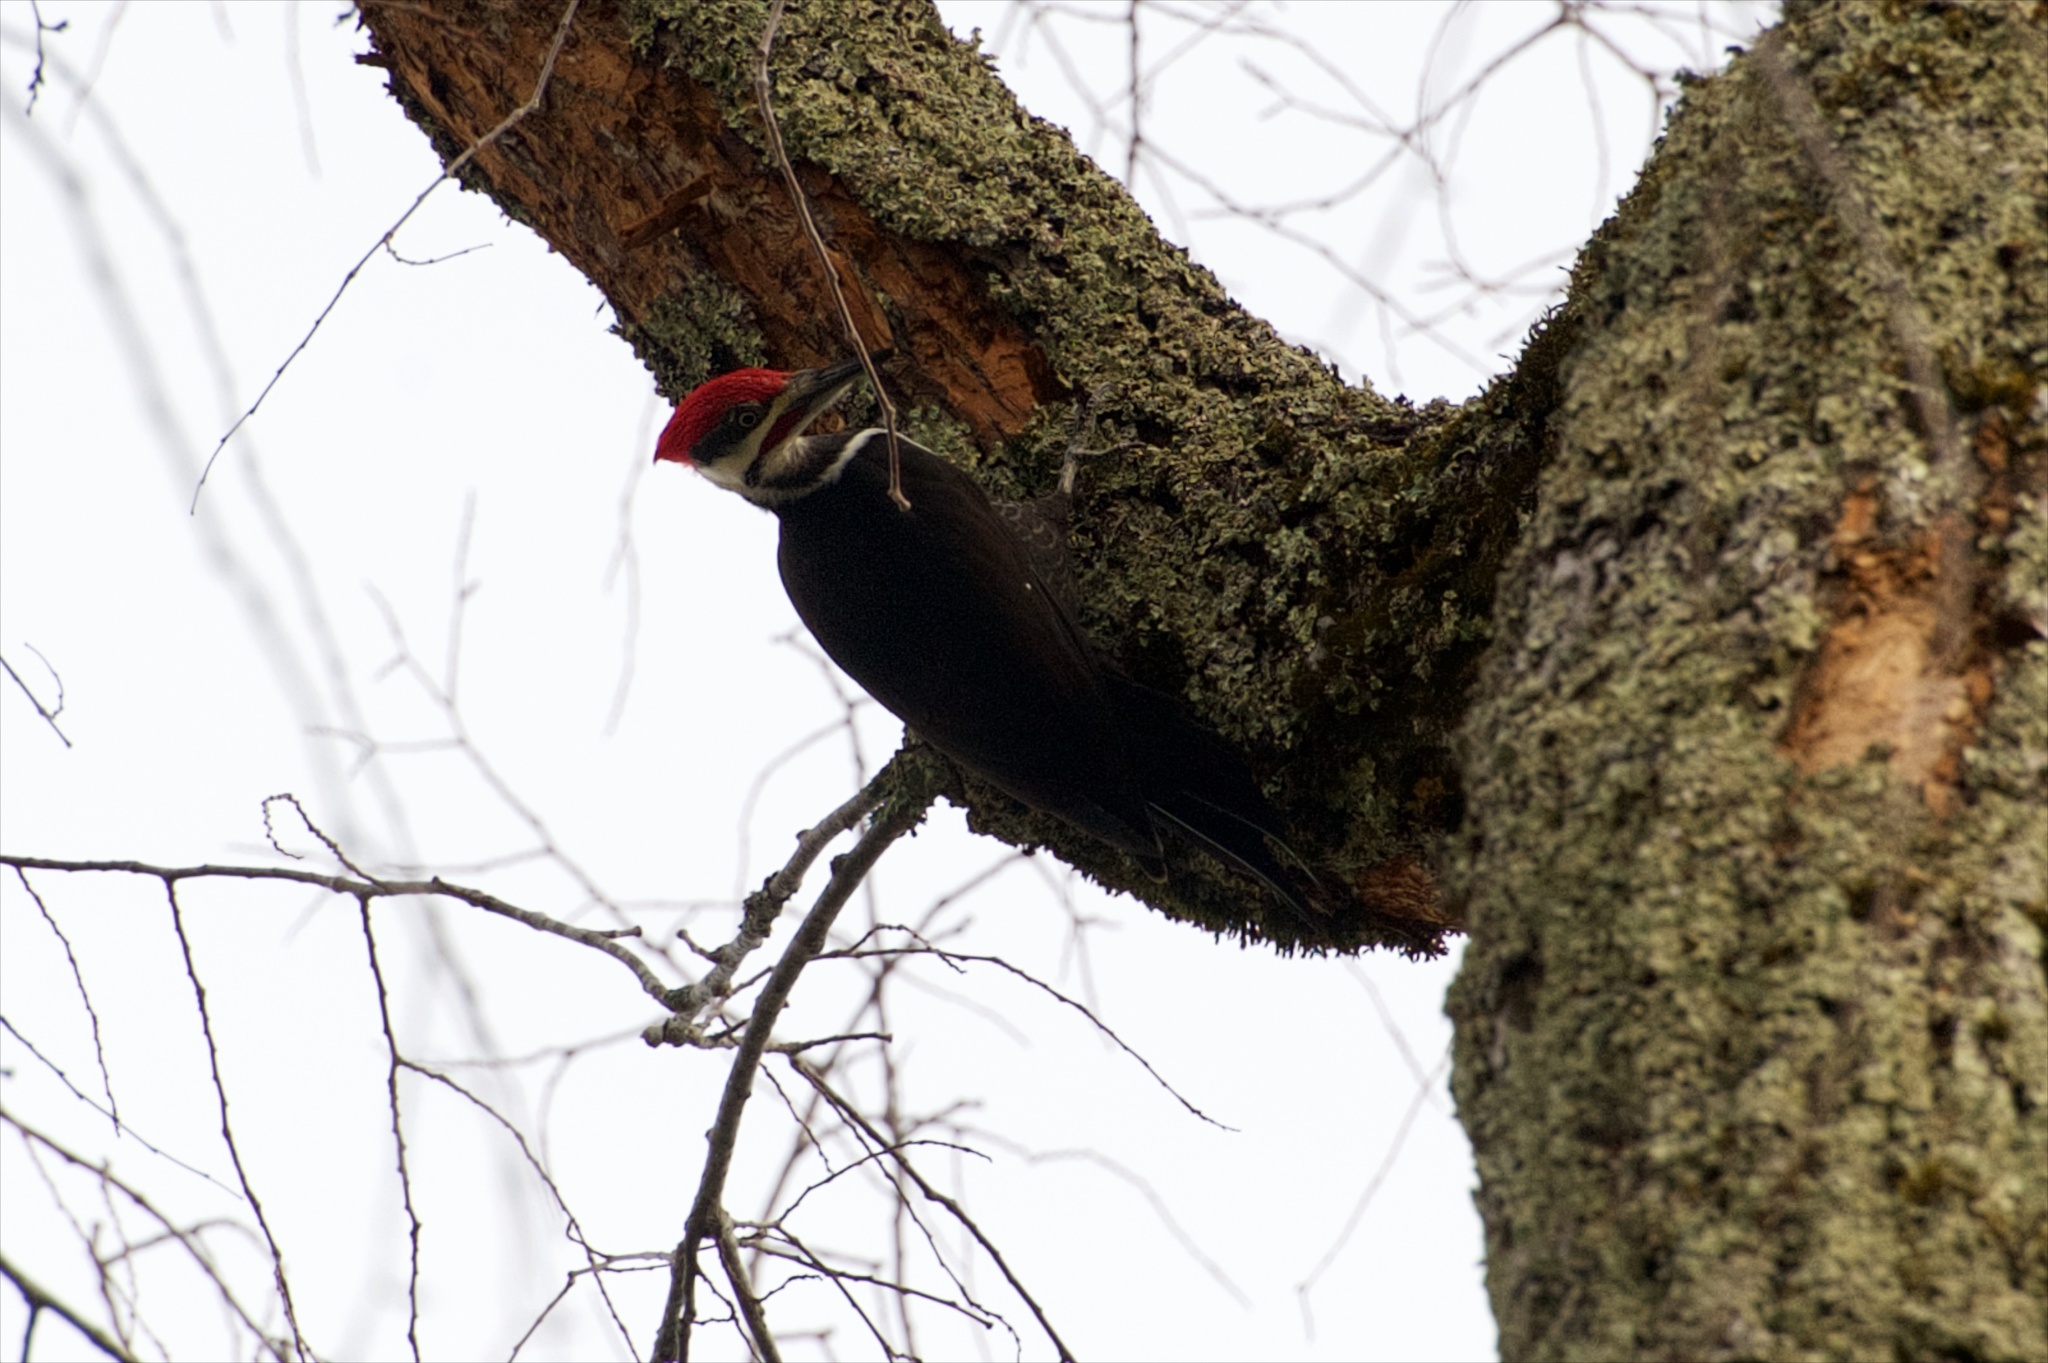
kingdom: Animalia
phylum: Chordata
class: Aves
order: Piciformes
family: Picidae
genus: Dryocopus
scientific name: Dryocopus pileatus
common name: Pileated woodpecker
